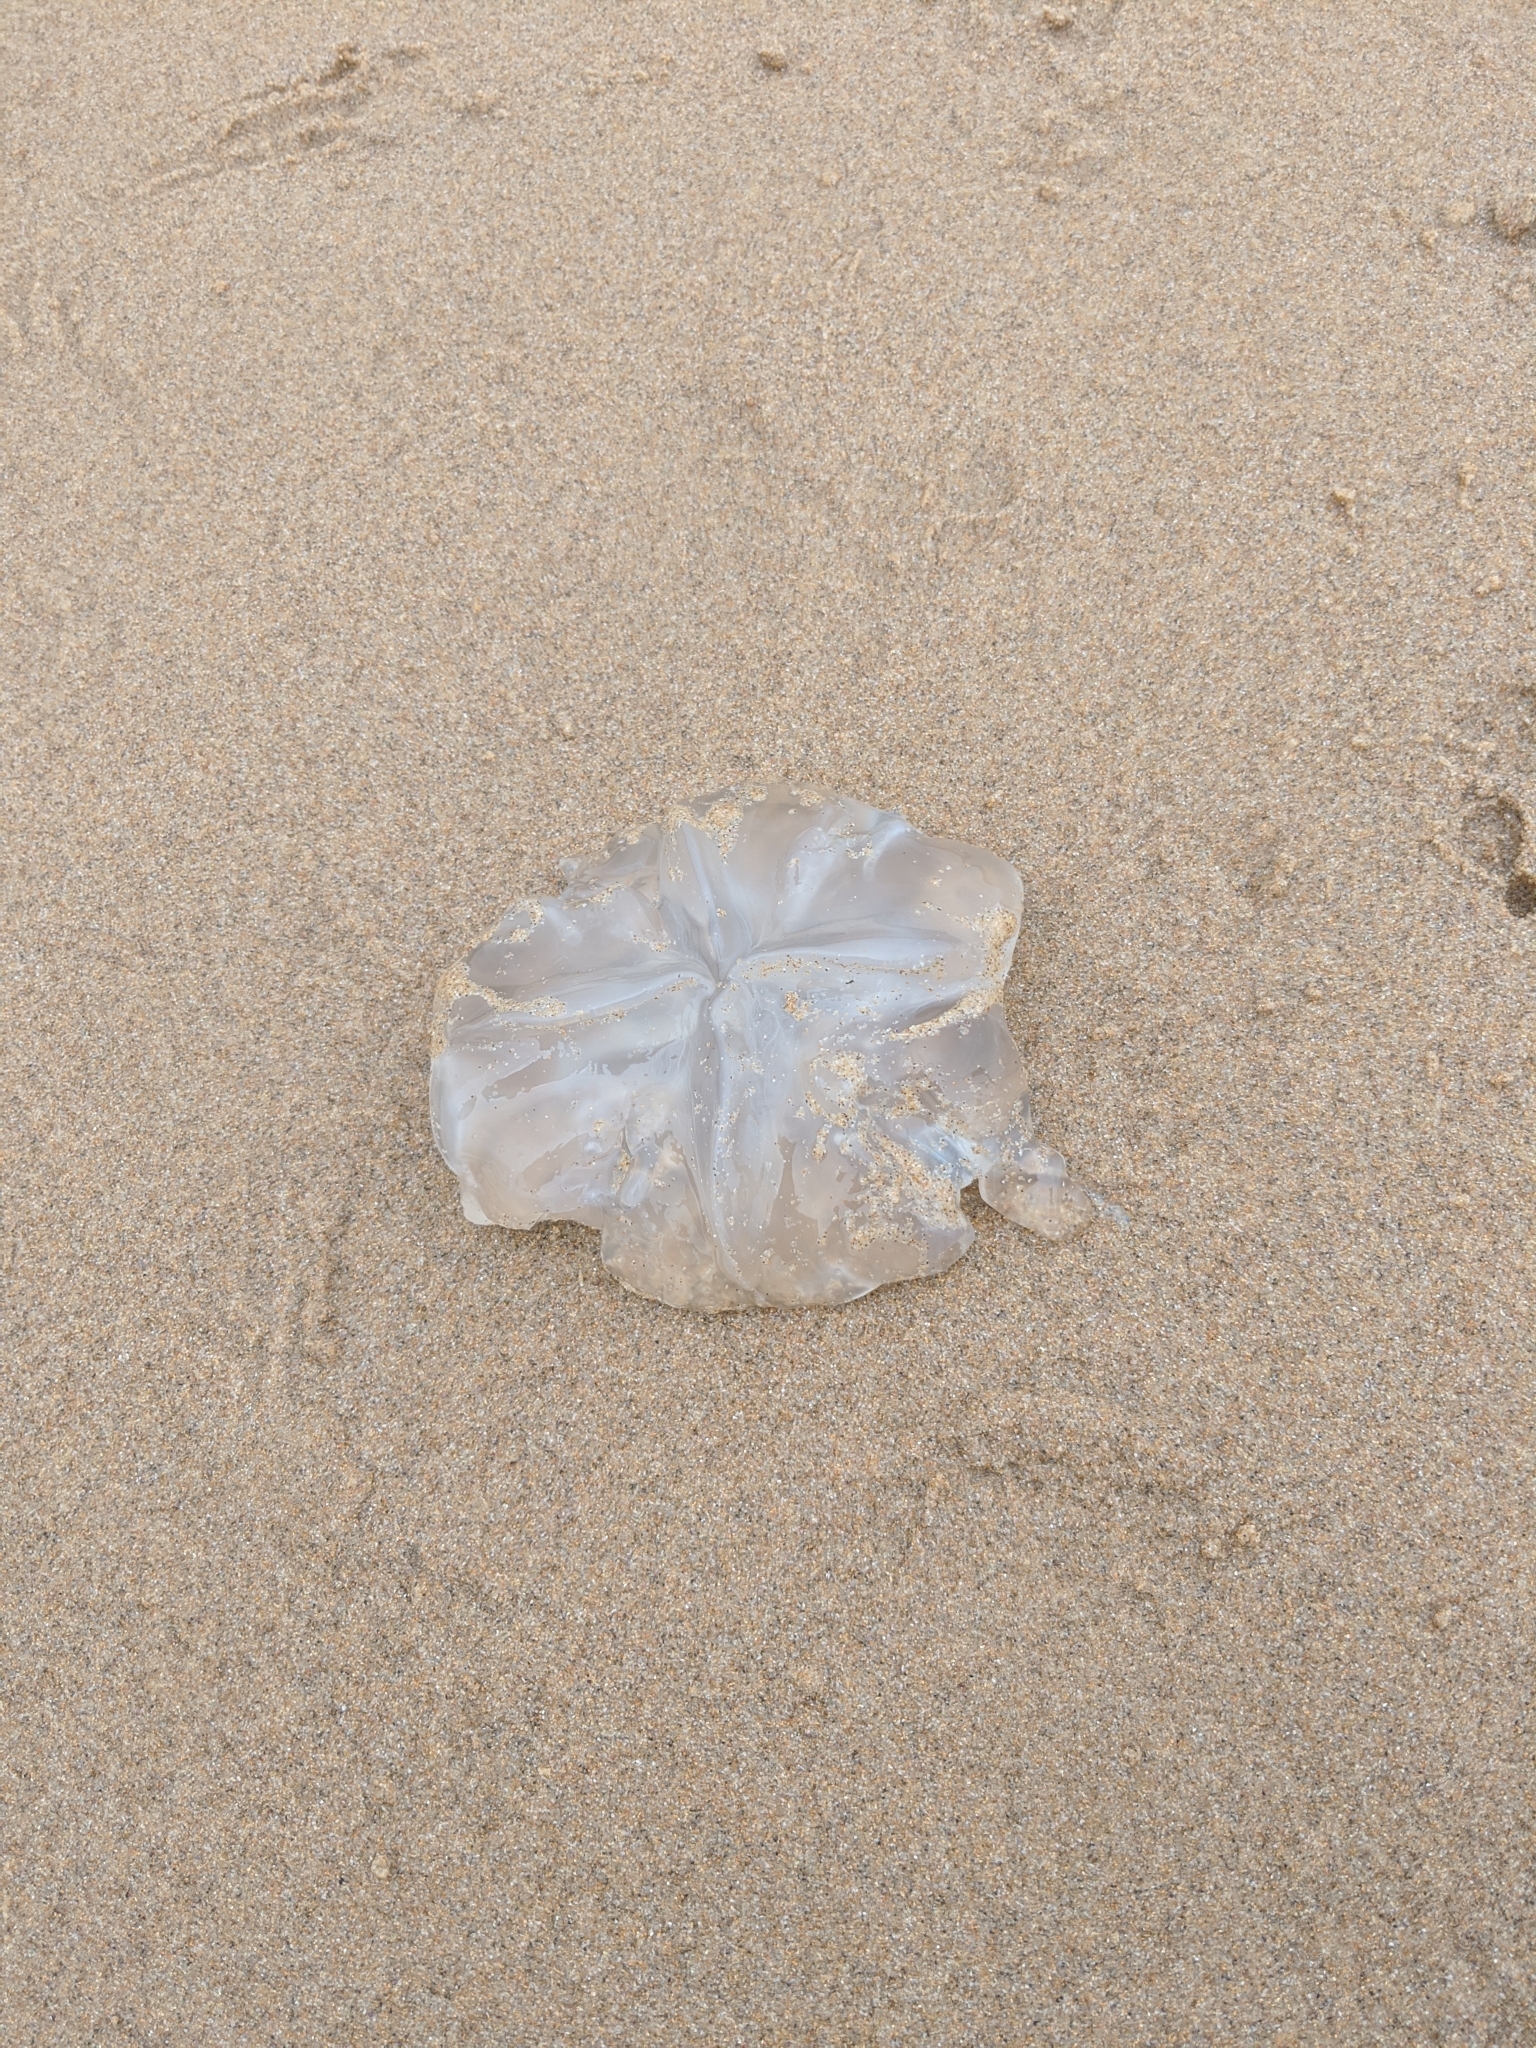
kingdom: Animalia
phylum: Cnidaria
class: Scyphozoa
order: Rhizostomeae
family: Catostylidae
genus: Catostylus
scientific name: Catostylus mosaicus
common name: Blue blubber
